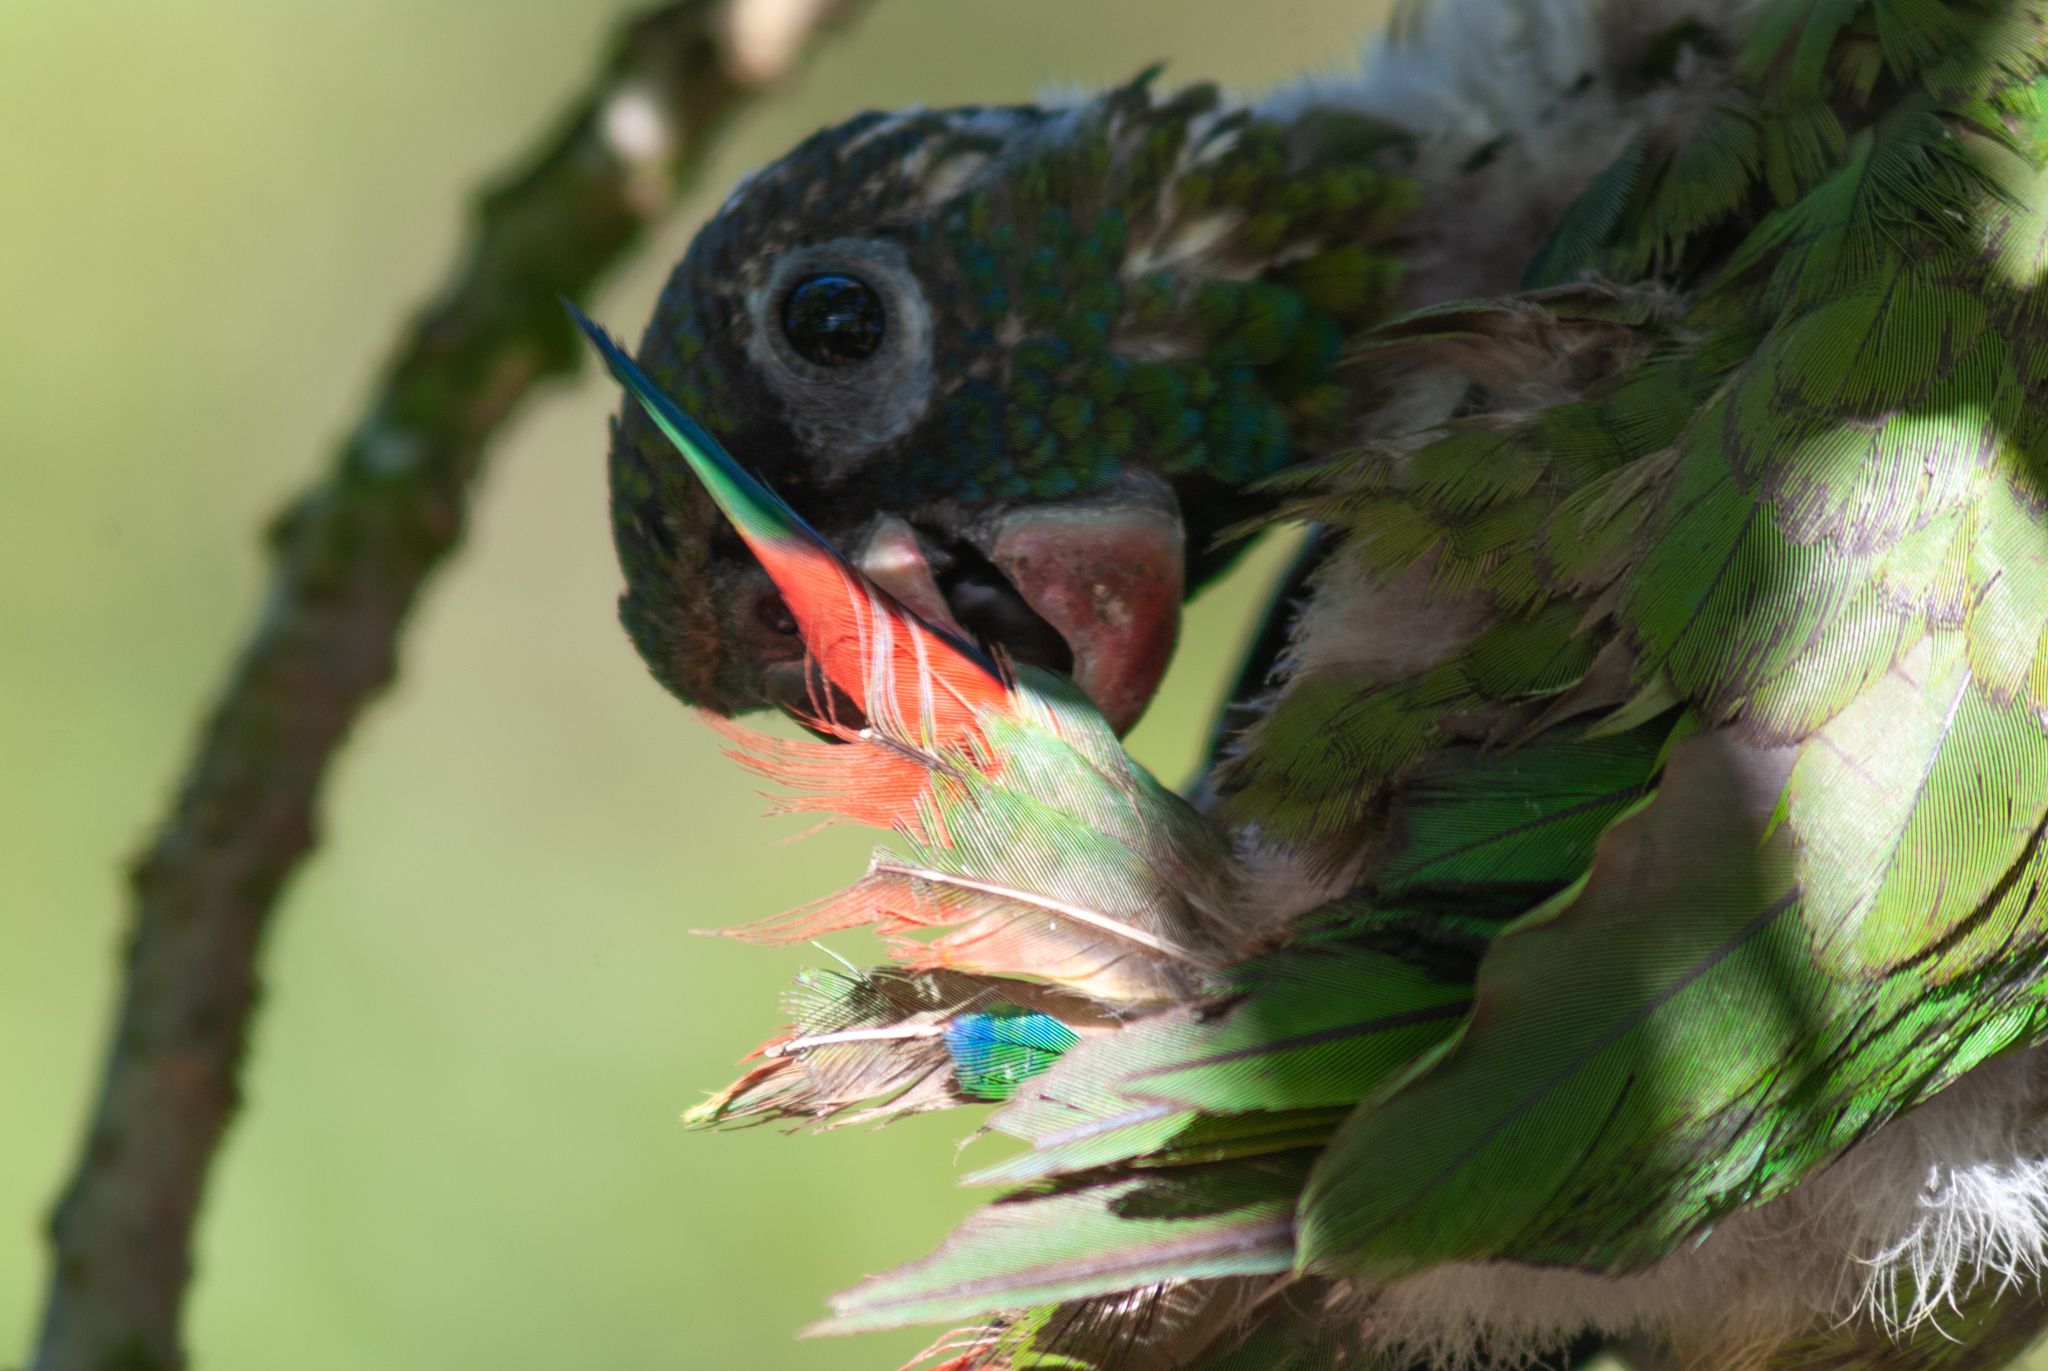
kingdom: Animalia
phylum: Chordata
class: Aves
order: Psittaciformes
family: Psittacidae
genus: Pionus
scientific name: Pionus sordidus
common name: Red-billed parrot
